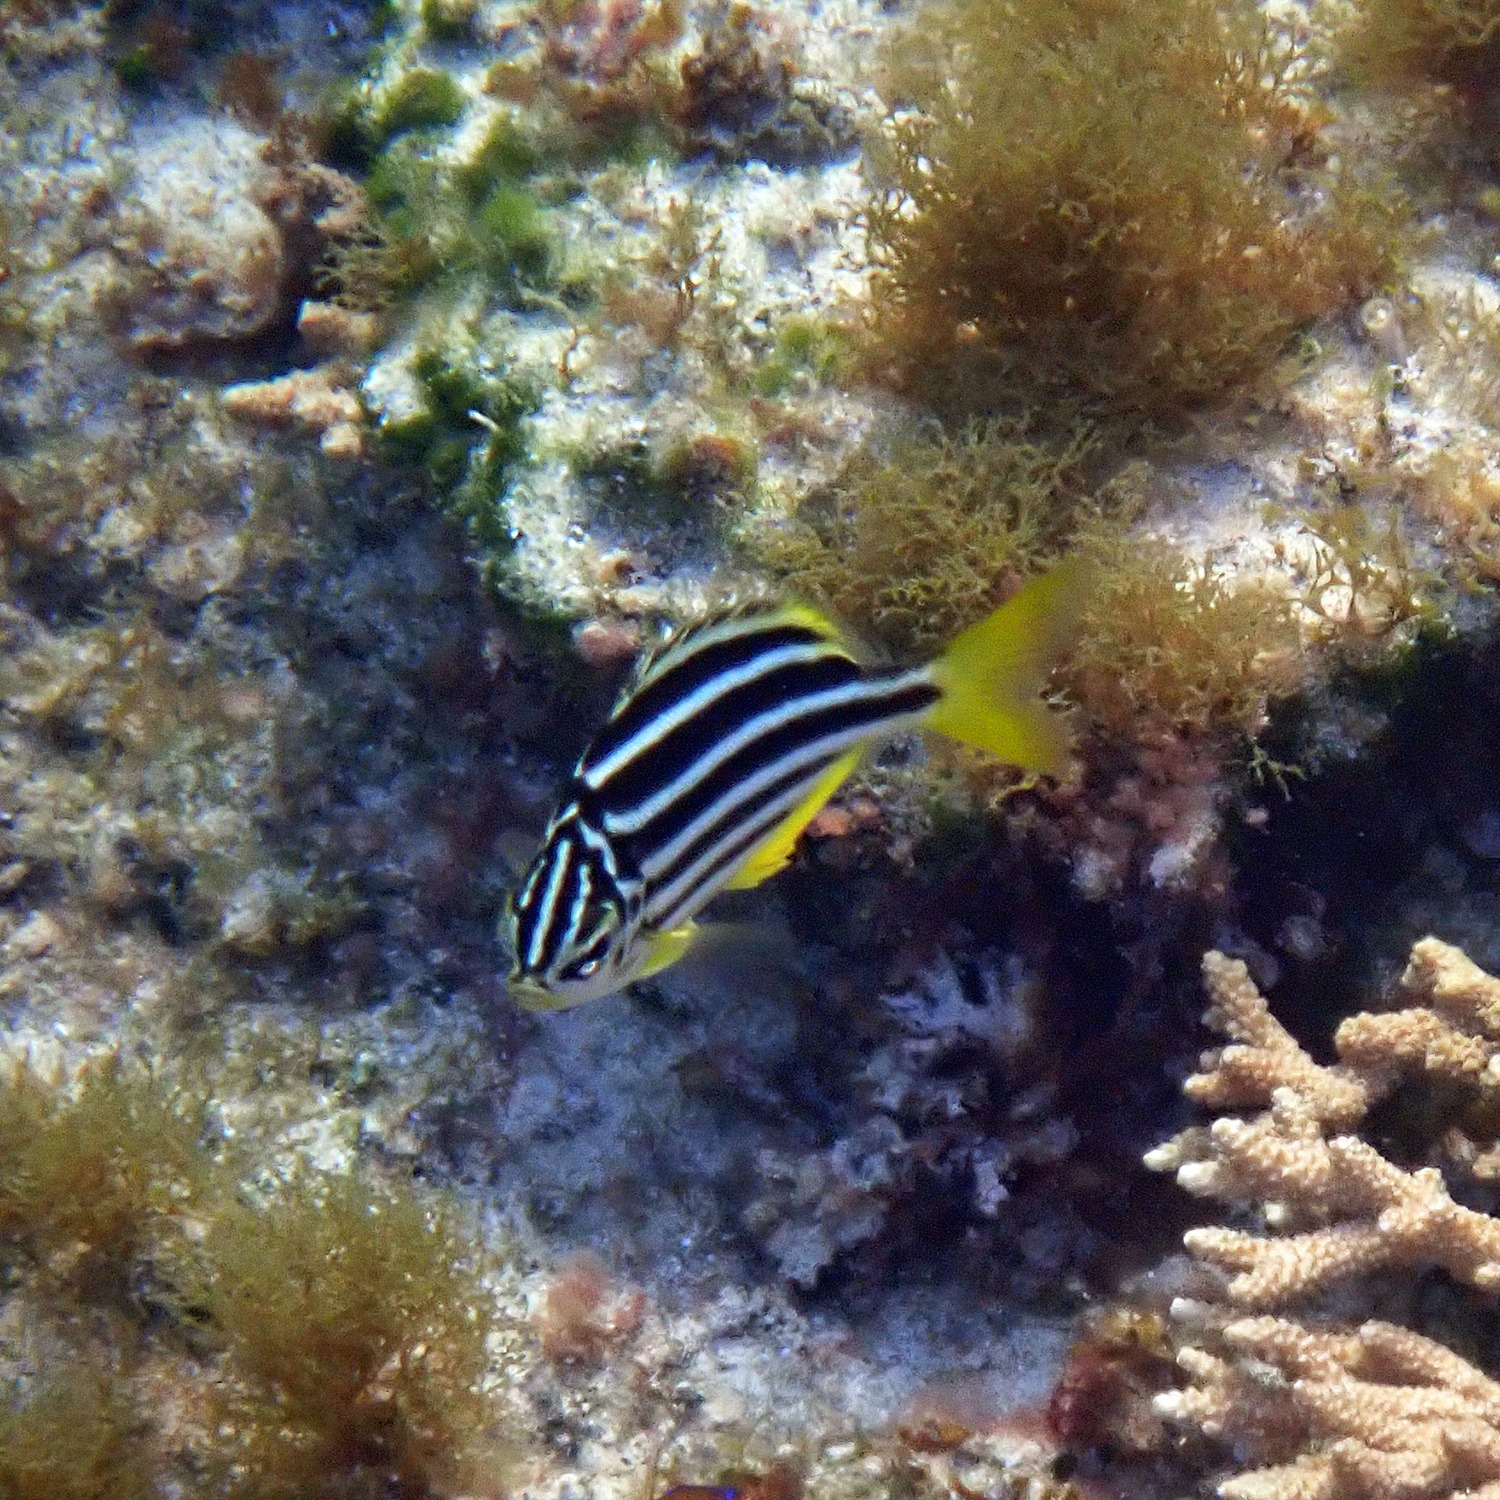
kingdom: Animalia
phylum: Chordata
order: Perciformes
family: Kyphosidae
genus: Atypichthys
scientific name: Atypichthys latus
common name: Mado
